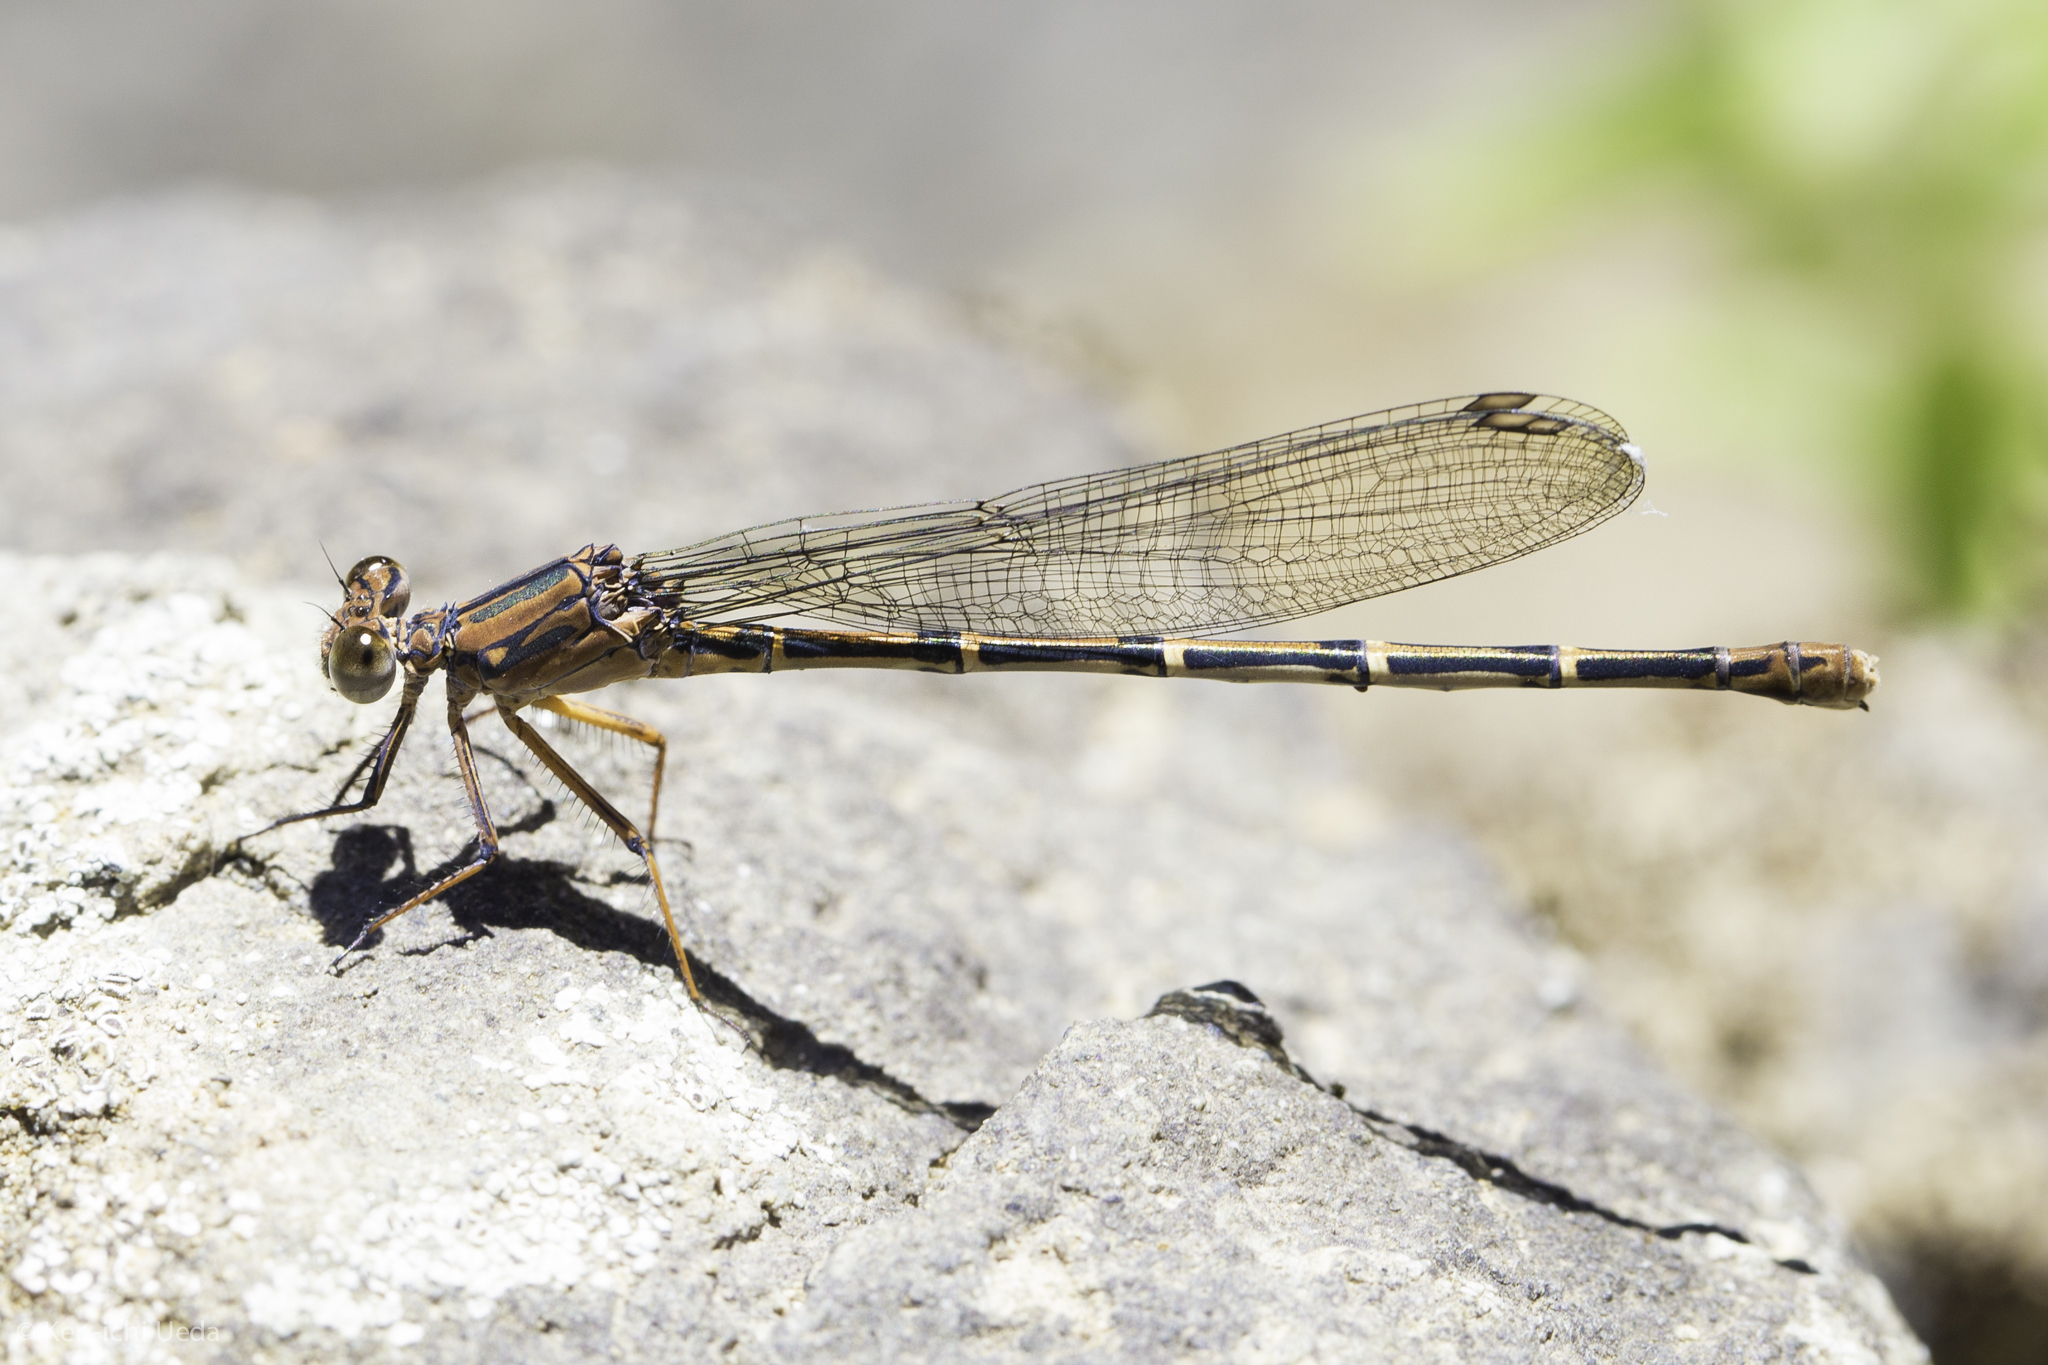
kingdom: Animalia
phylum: Arthropoda
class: Insecta
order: Odonata
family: Coenagrionidae
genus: Argia
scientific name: Argia lugens
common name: Sooty dancer
